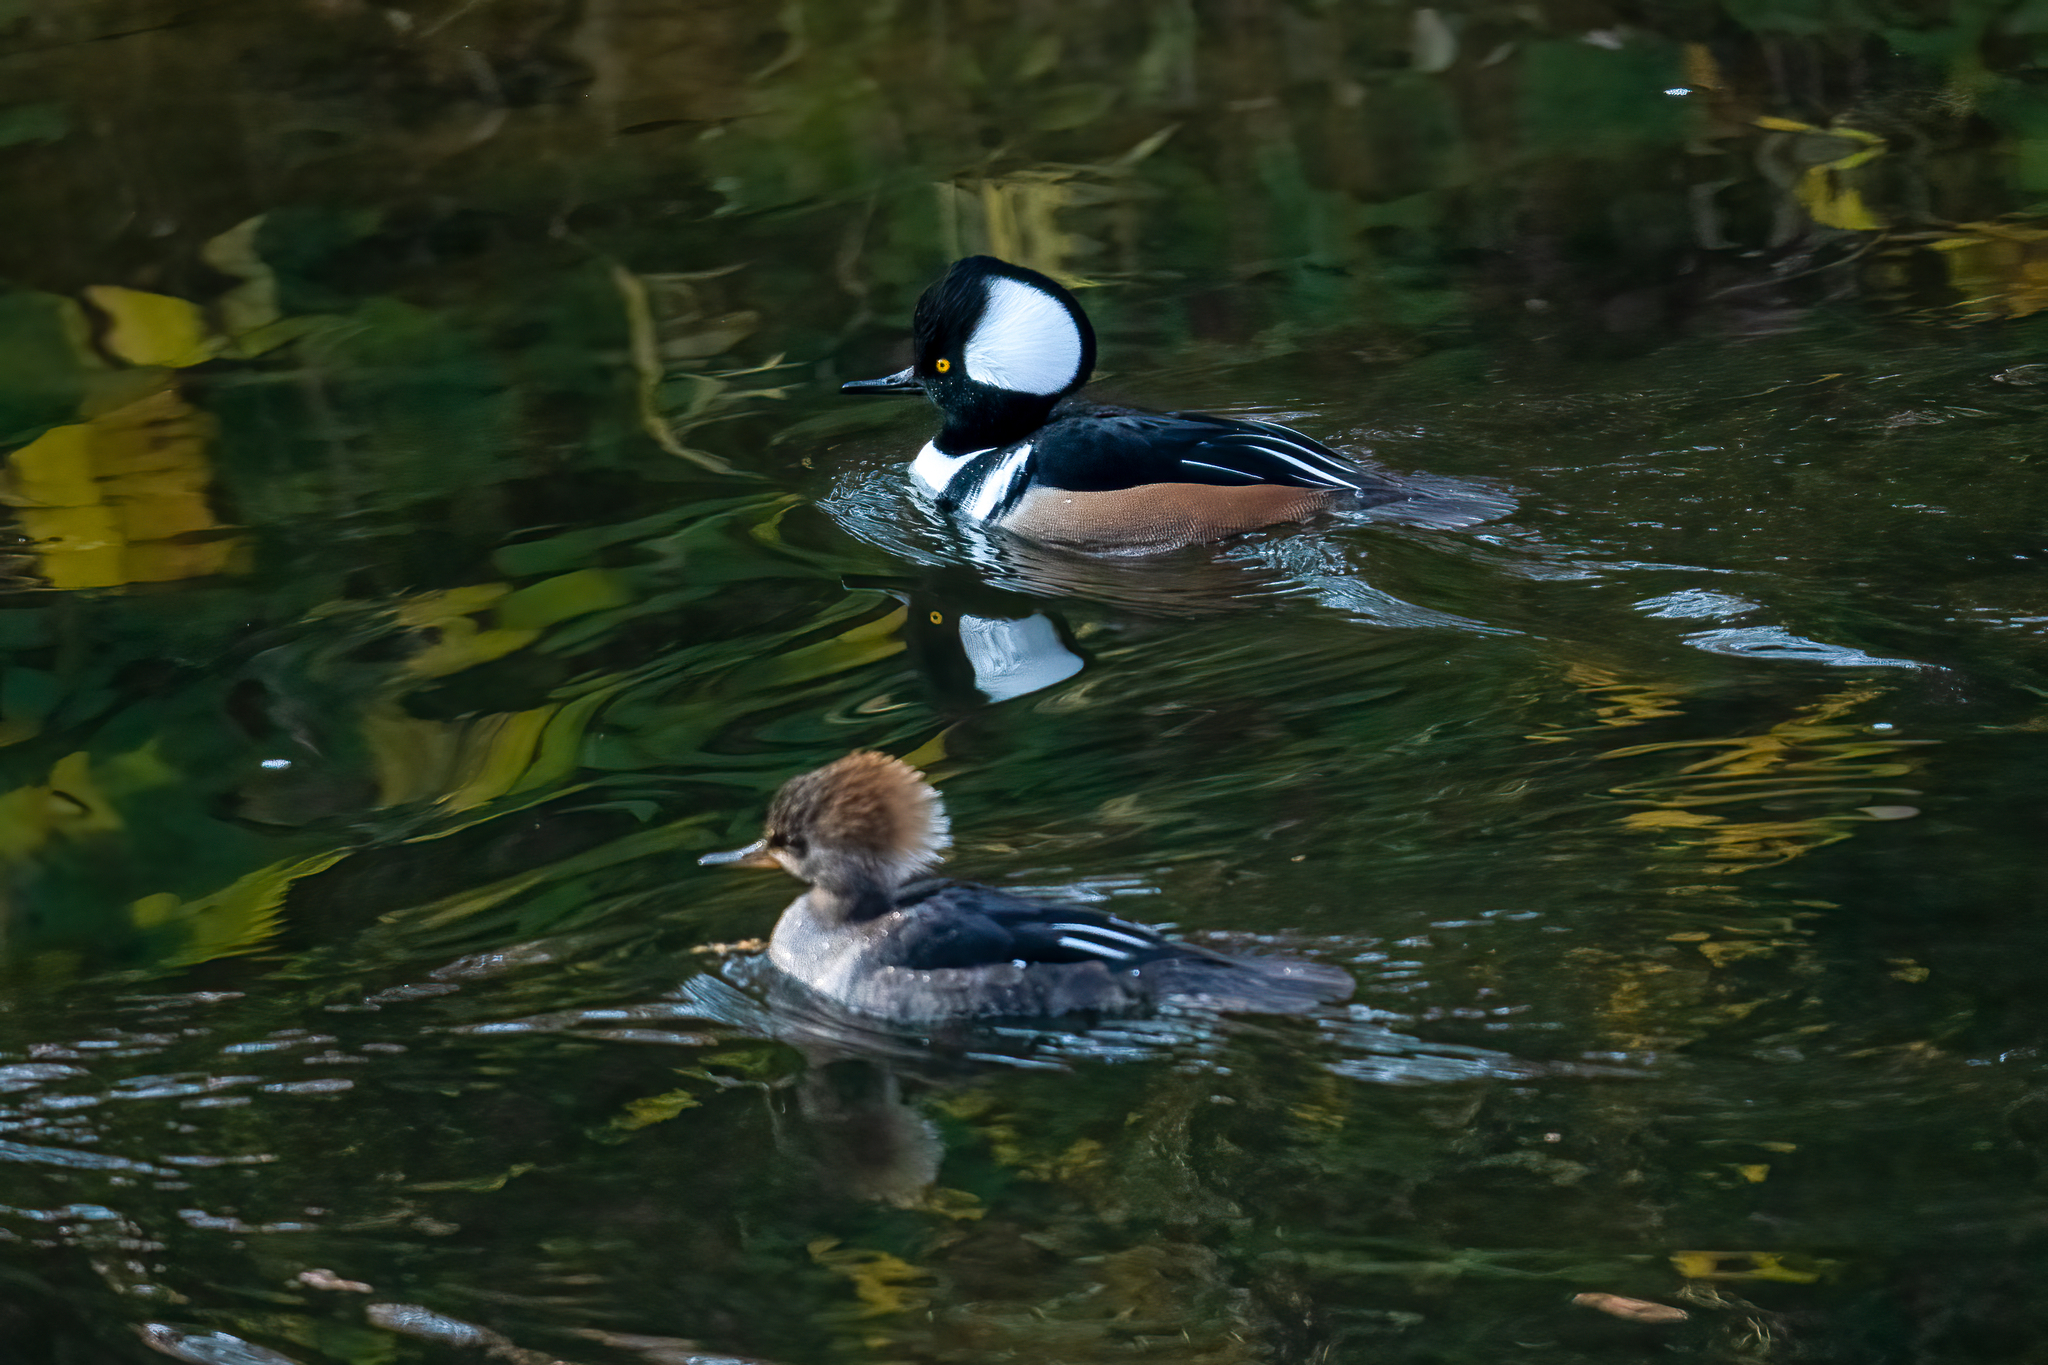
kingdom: Animalia
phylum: Chordata
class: Aves
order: Anseriformes
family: Anatidae
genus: Lophodytes
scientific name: Lophodytes cucullatus
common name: Hooded merganser
